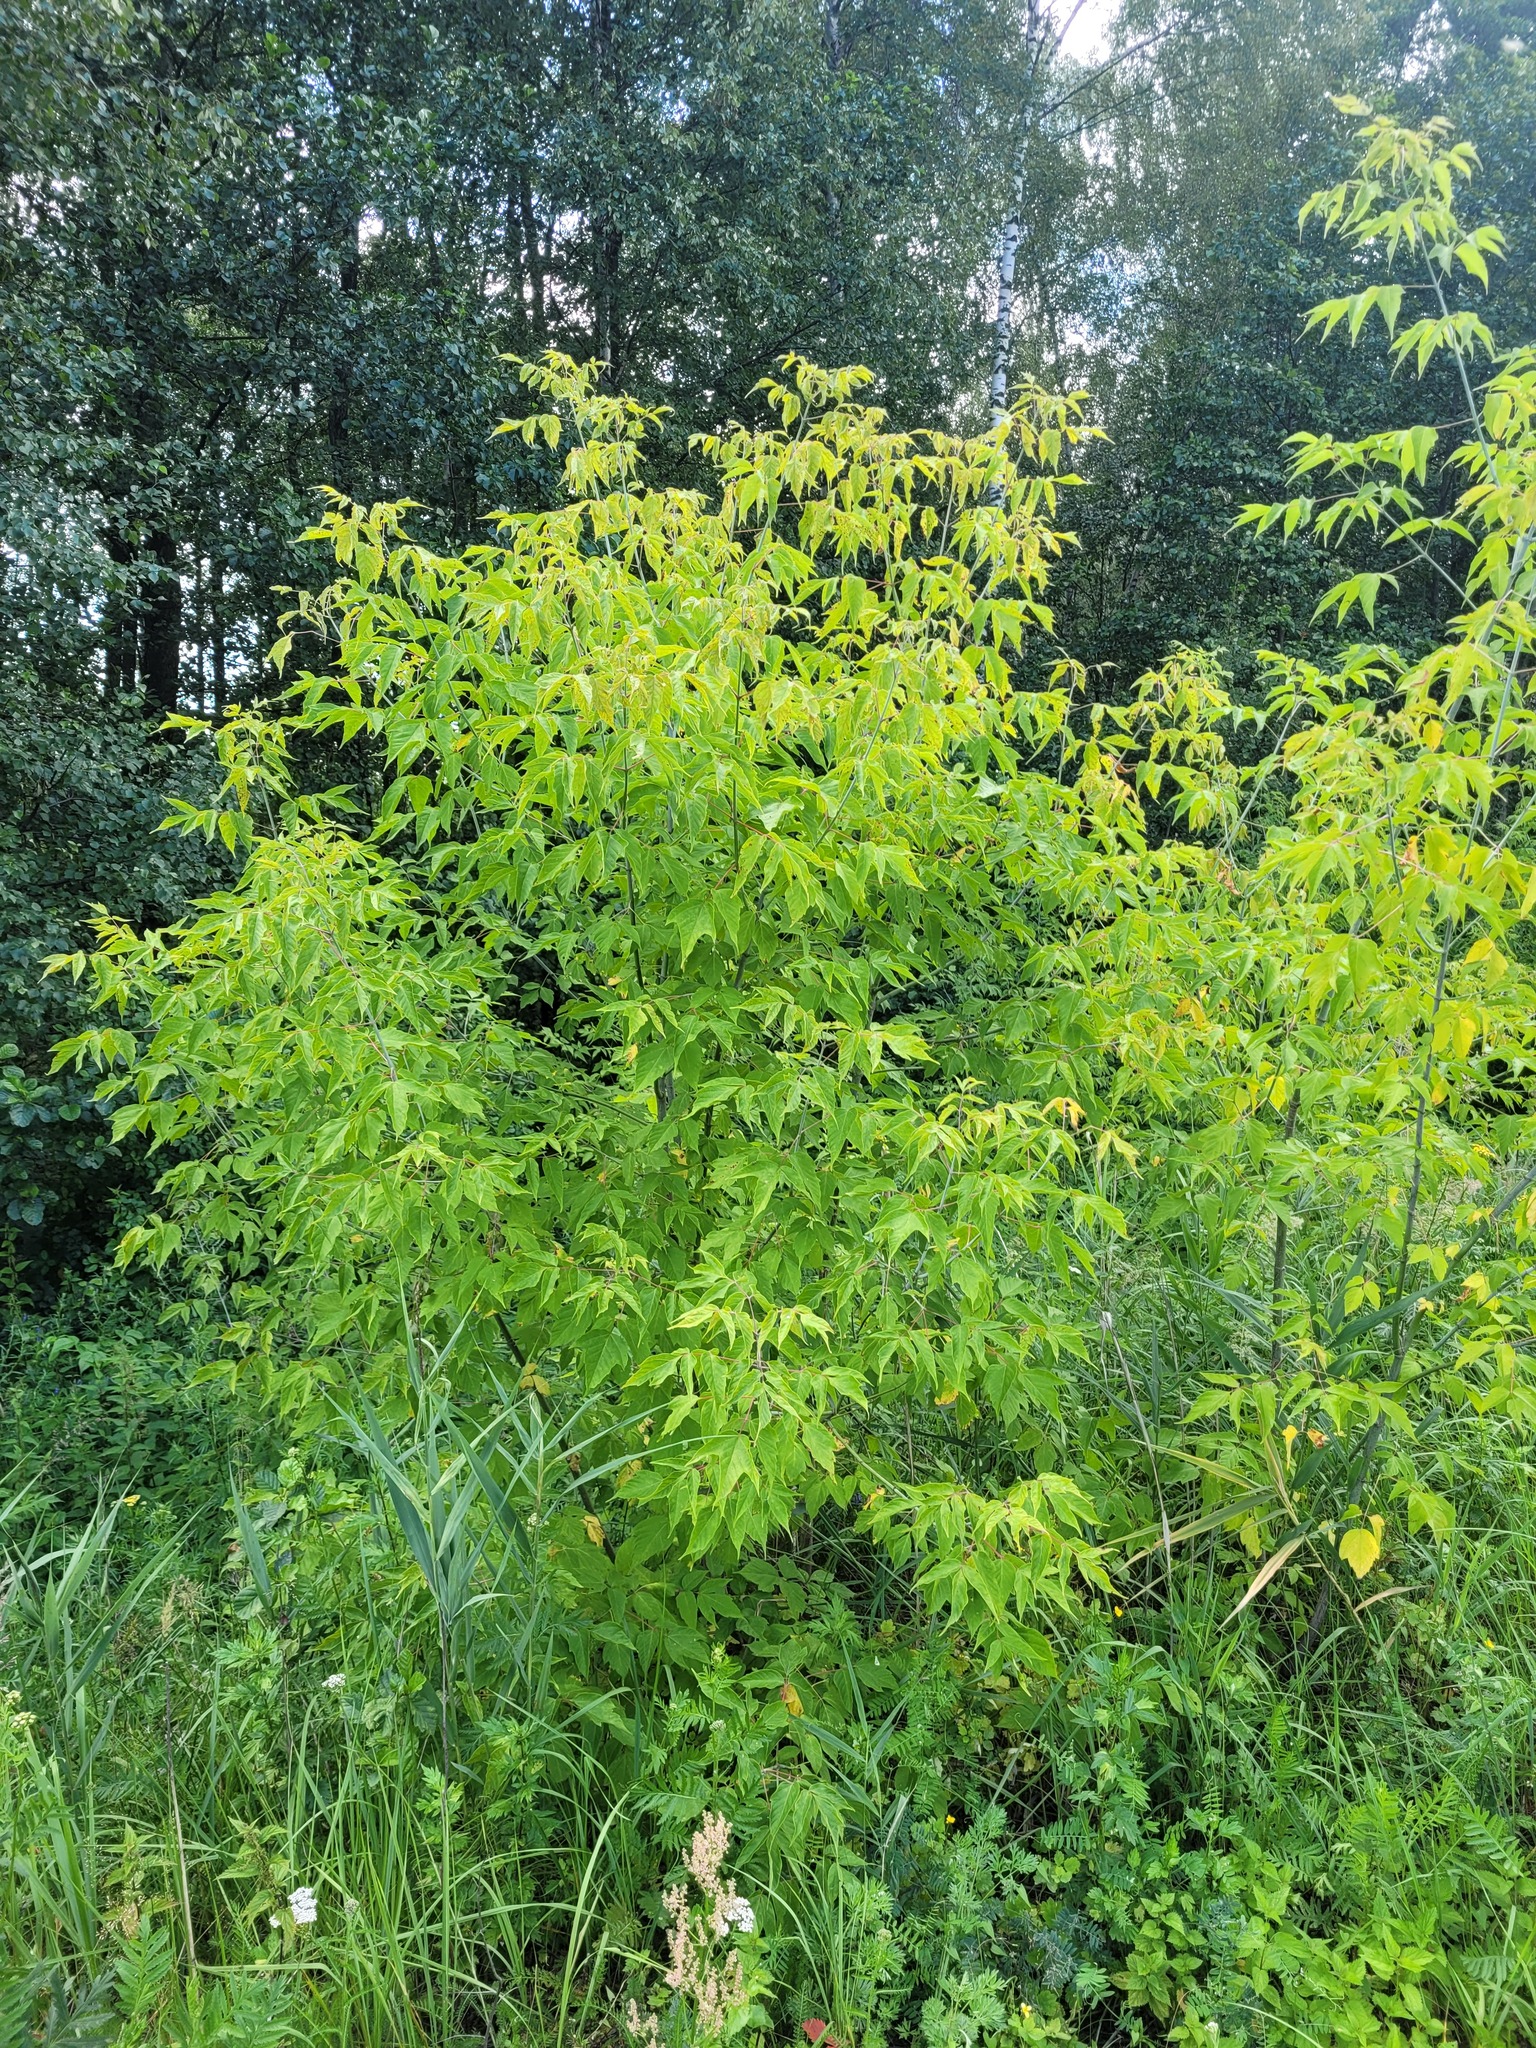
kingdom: Plantae
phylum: Tracheophyta
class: Magnoliopsida
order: Sapindales
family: Sapindaceae
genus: Acer
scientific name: Acer negundo
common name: Ashleaf maple
